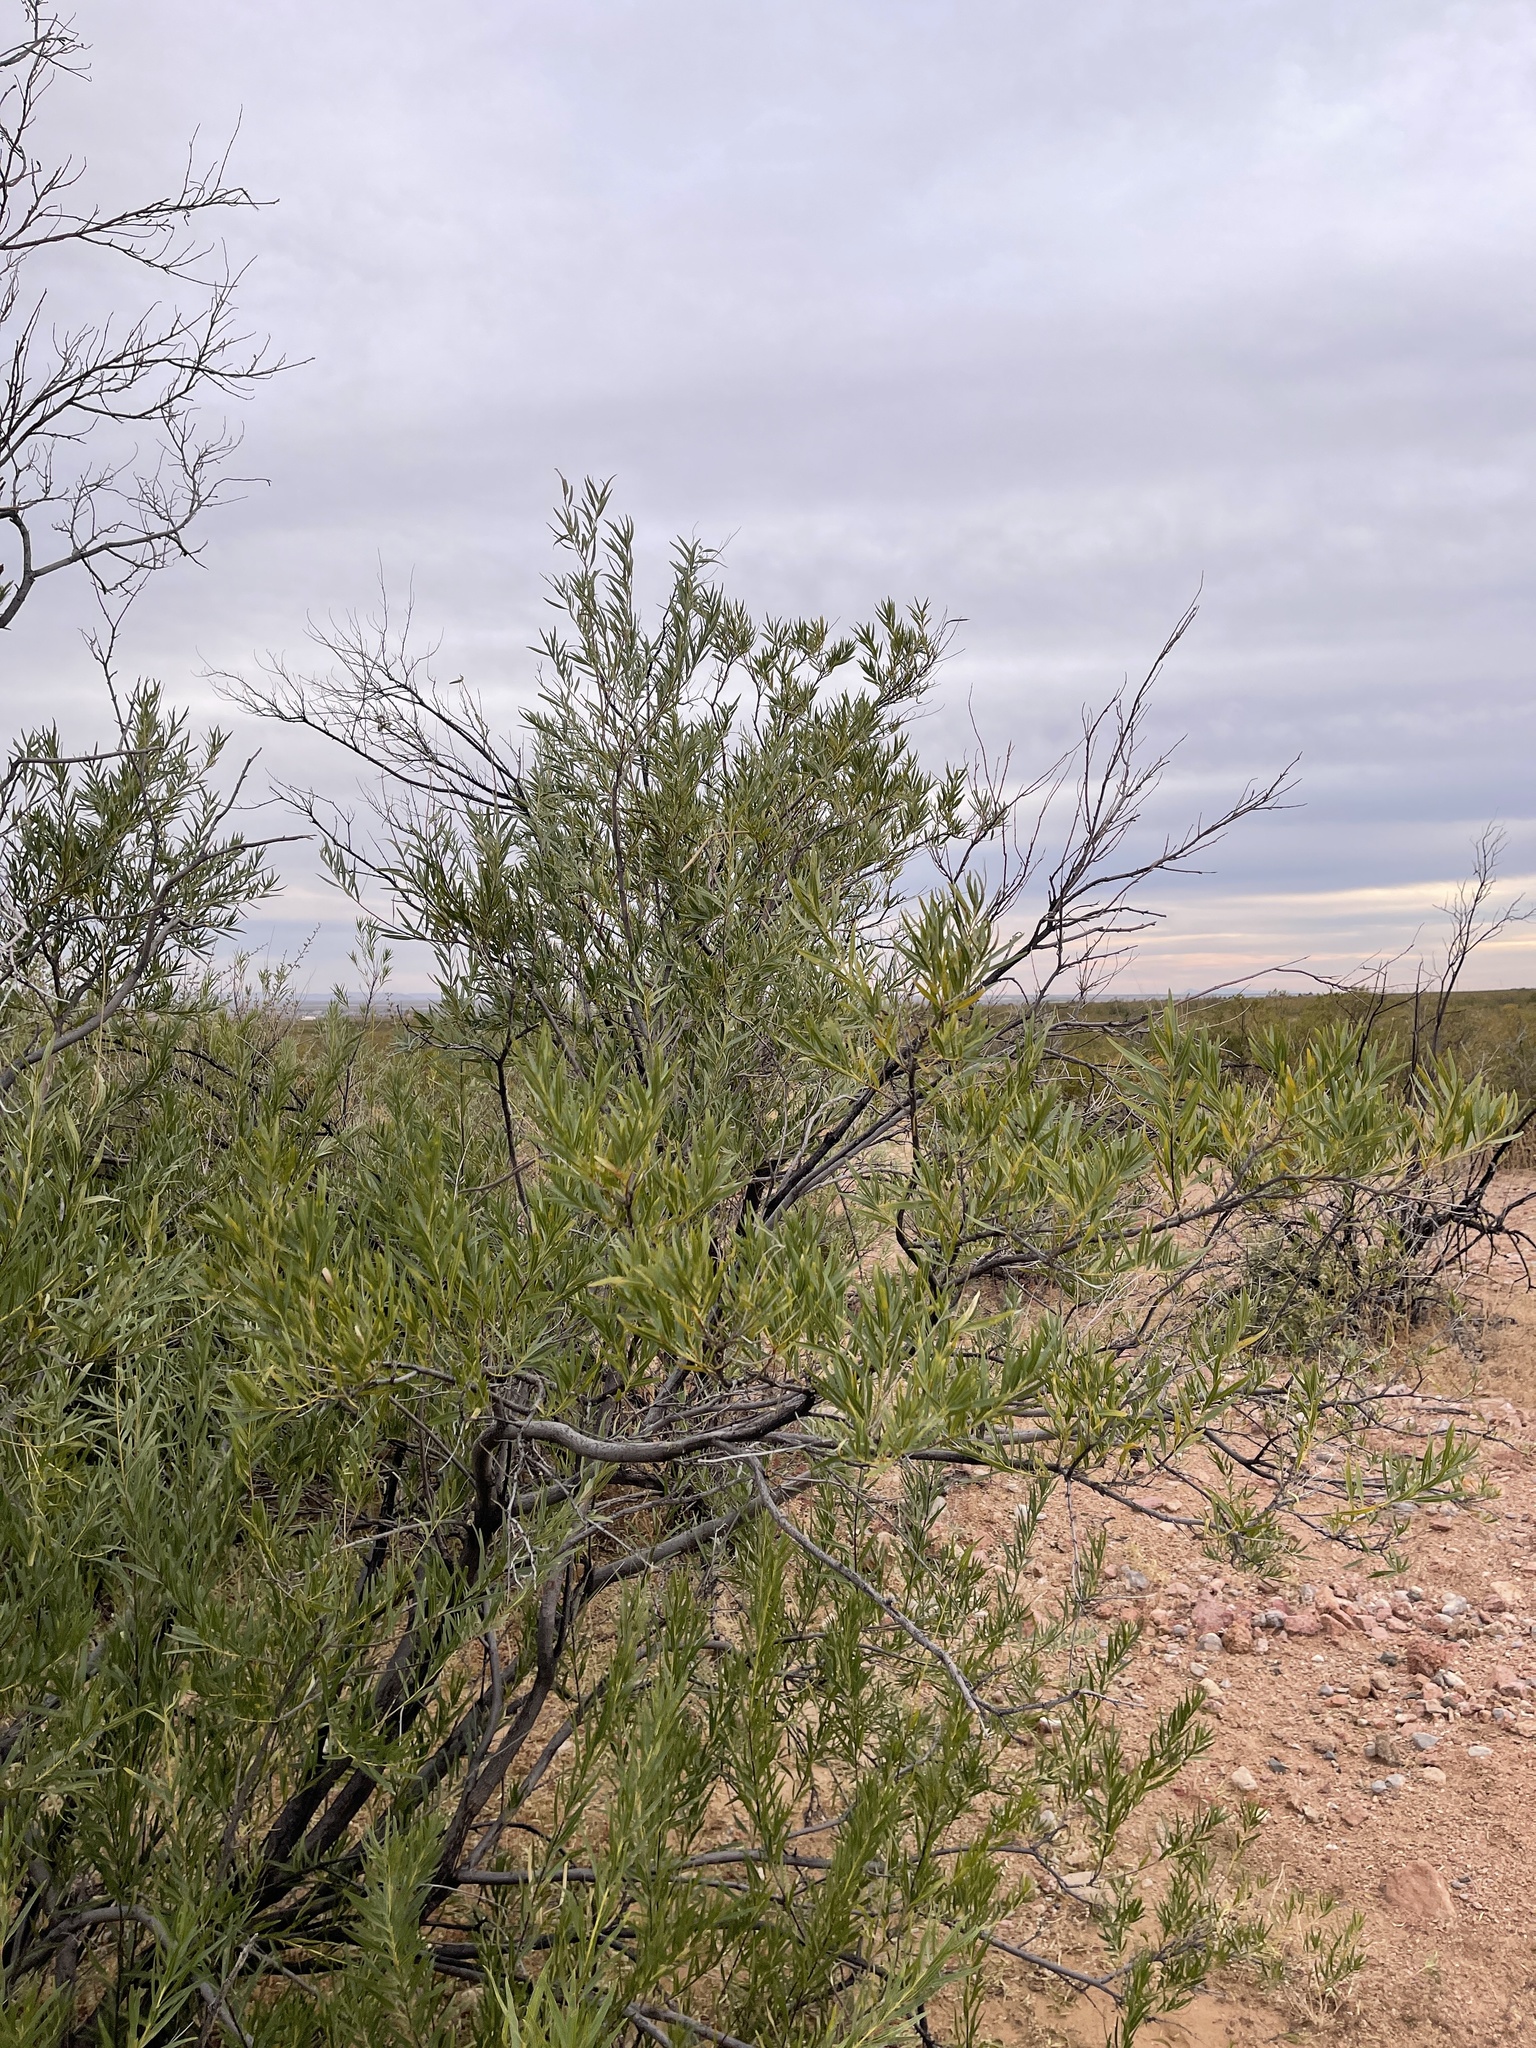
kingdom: Plantae
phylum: Tracheophyta
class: Magnoliopsida
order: Lamiales
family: Bignoniaceae
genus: Chilopsis
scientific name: Chilopsis linearis
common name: Desert-willow
